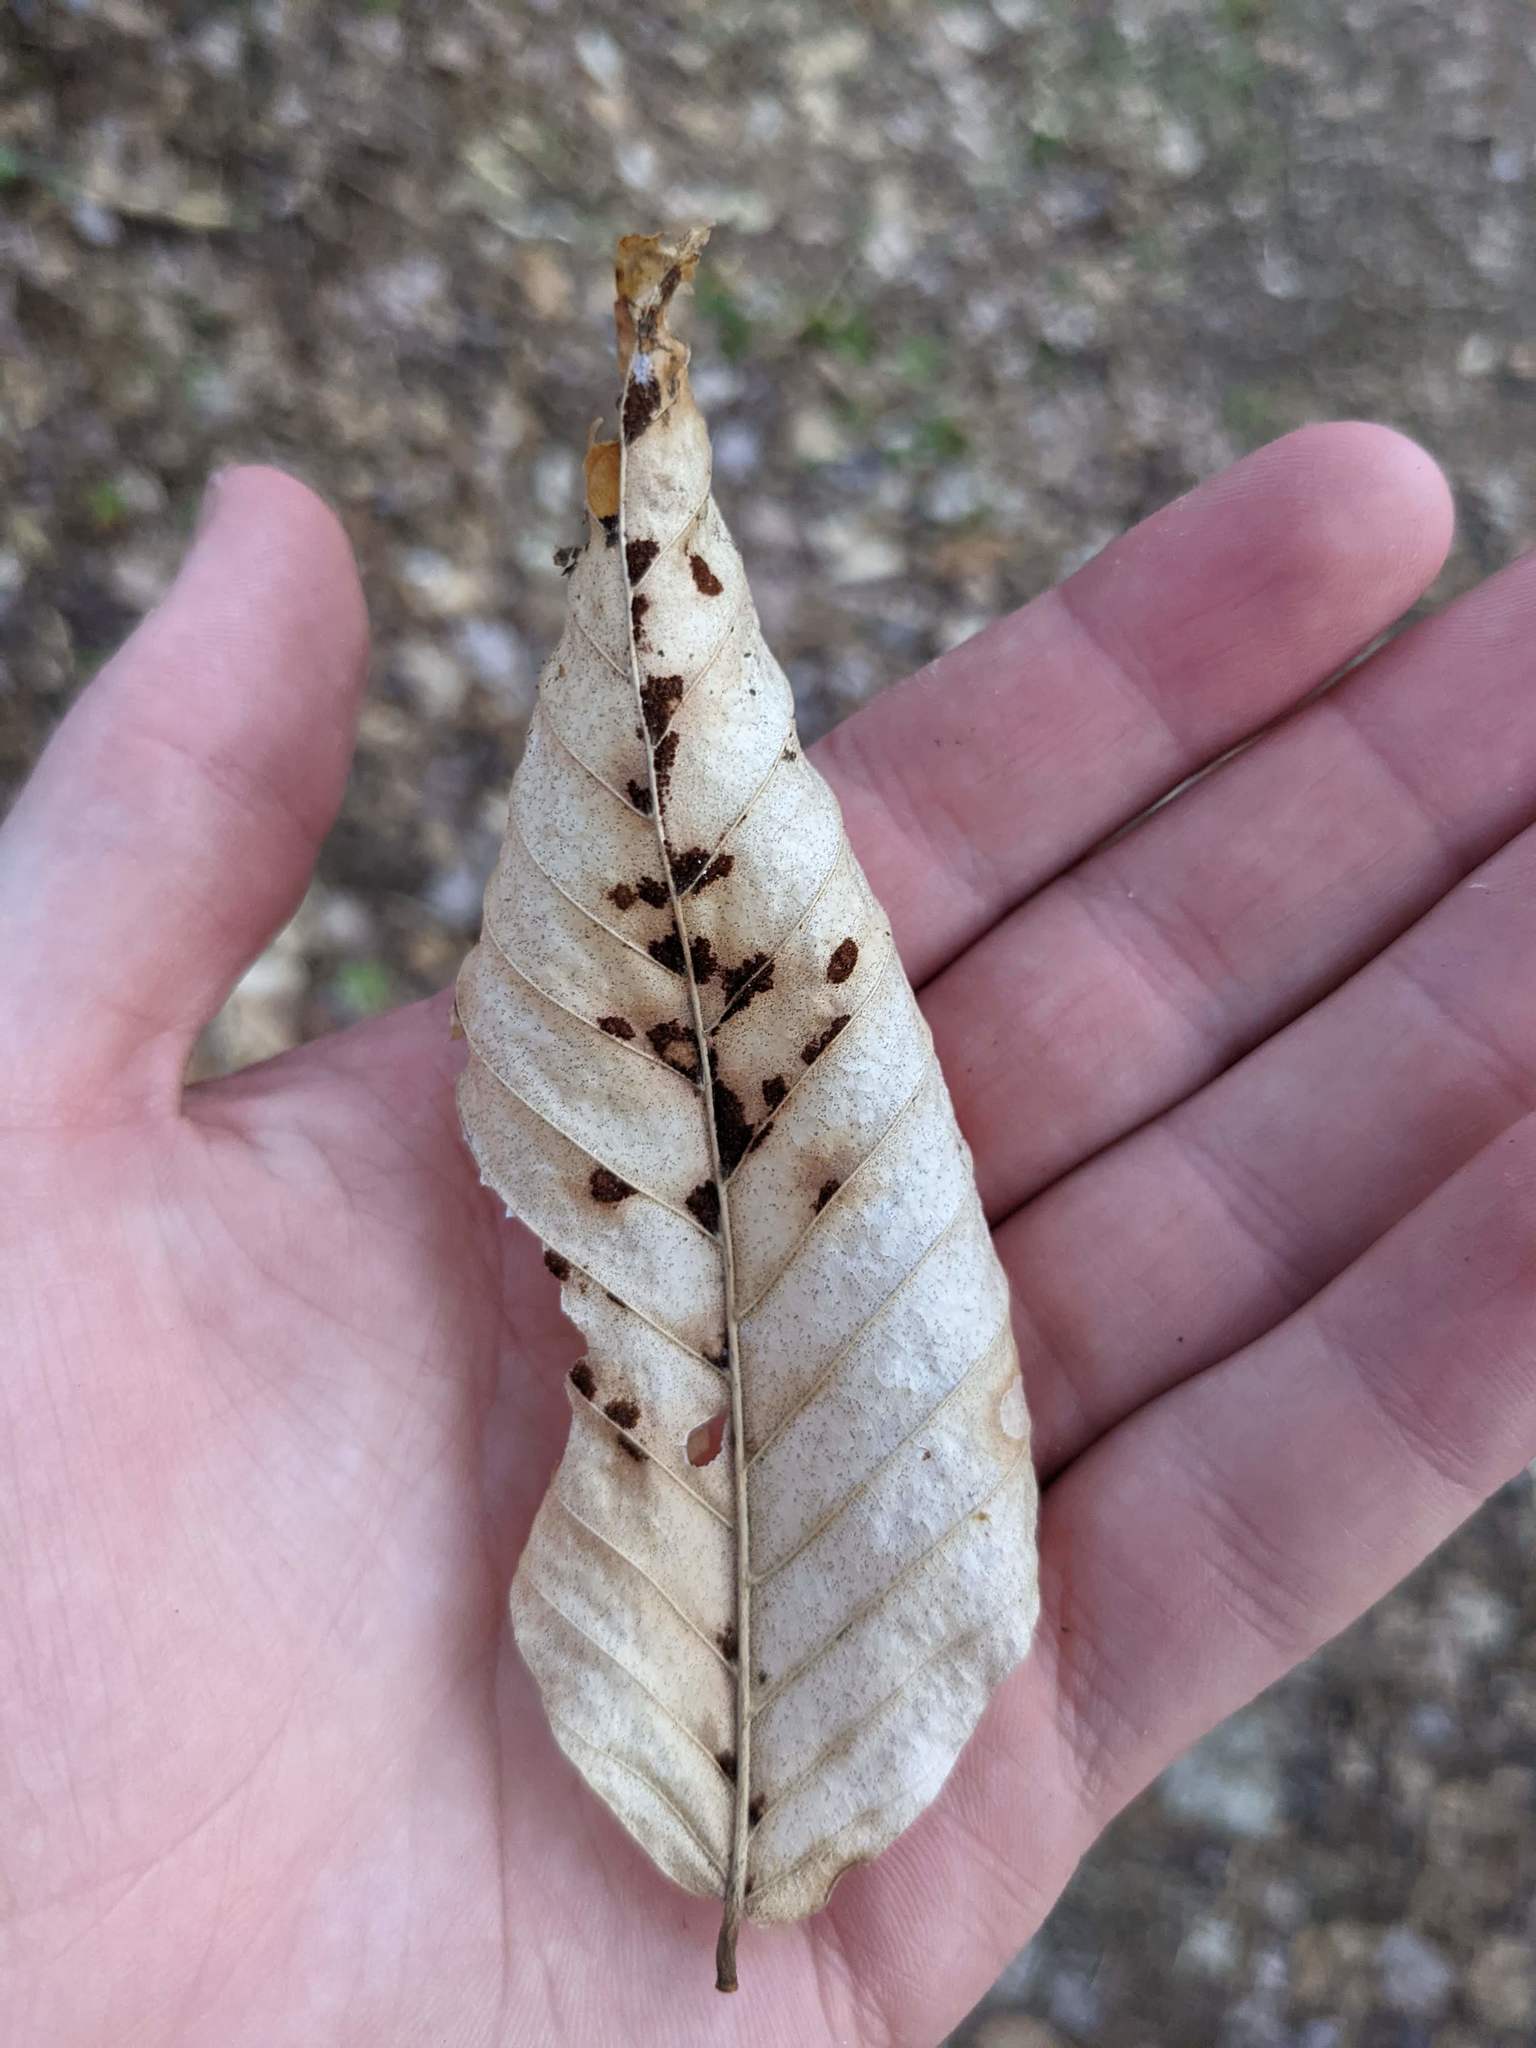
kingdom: Plantae
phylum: Tracheophyta
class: Magnoliopsida
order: Fagales
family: Fagaceae
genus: Fagus
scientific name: Fagus grandifolia
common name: American beech
